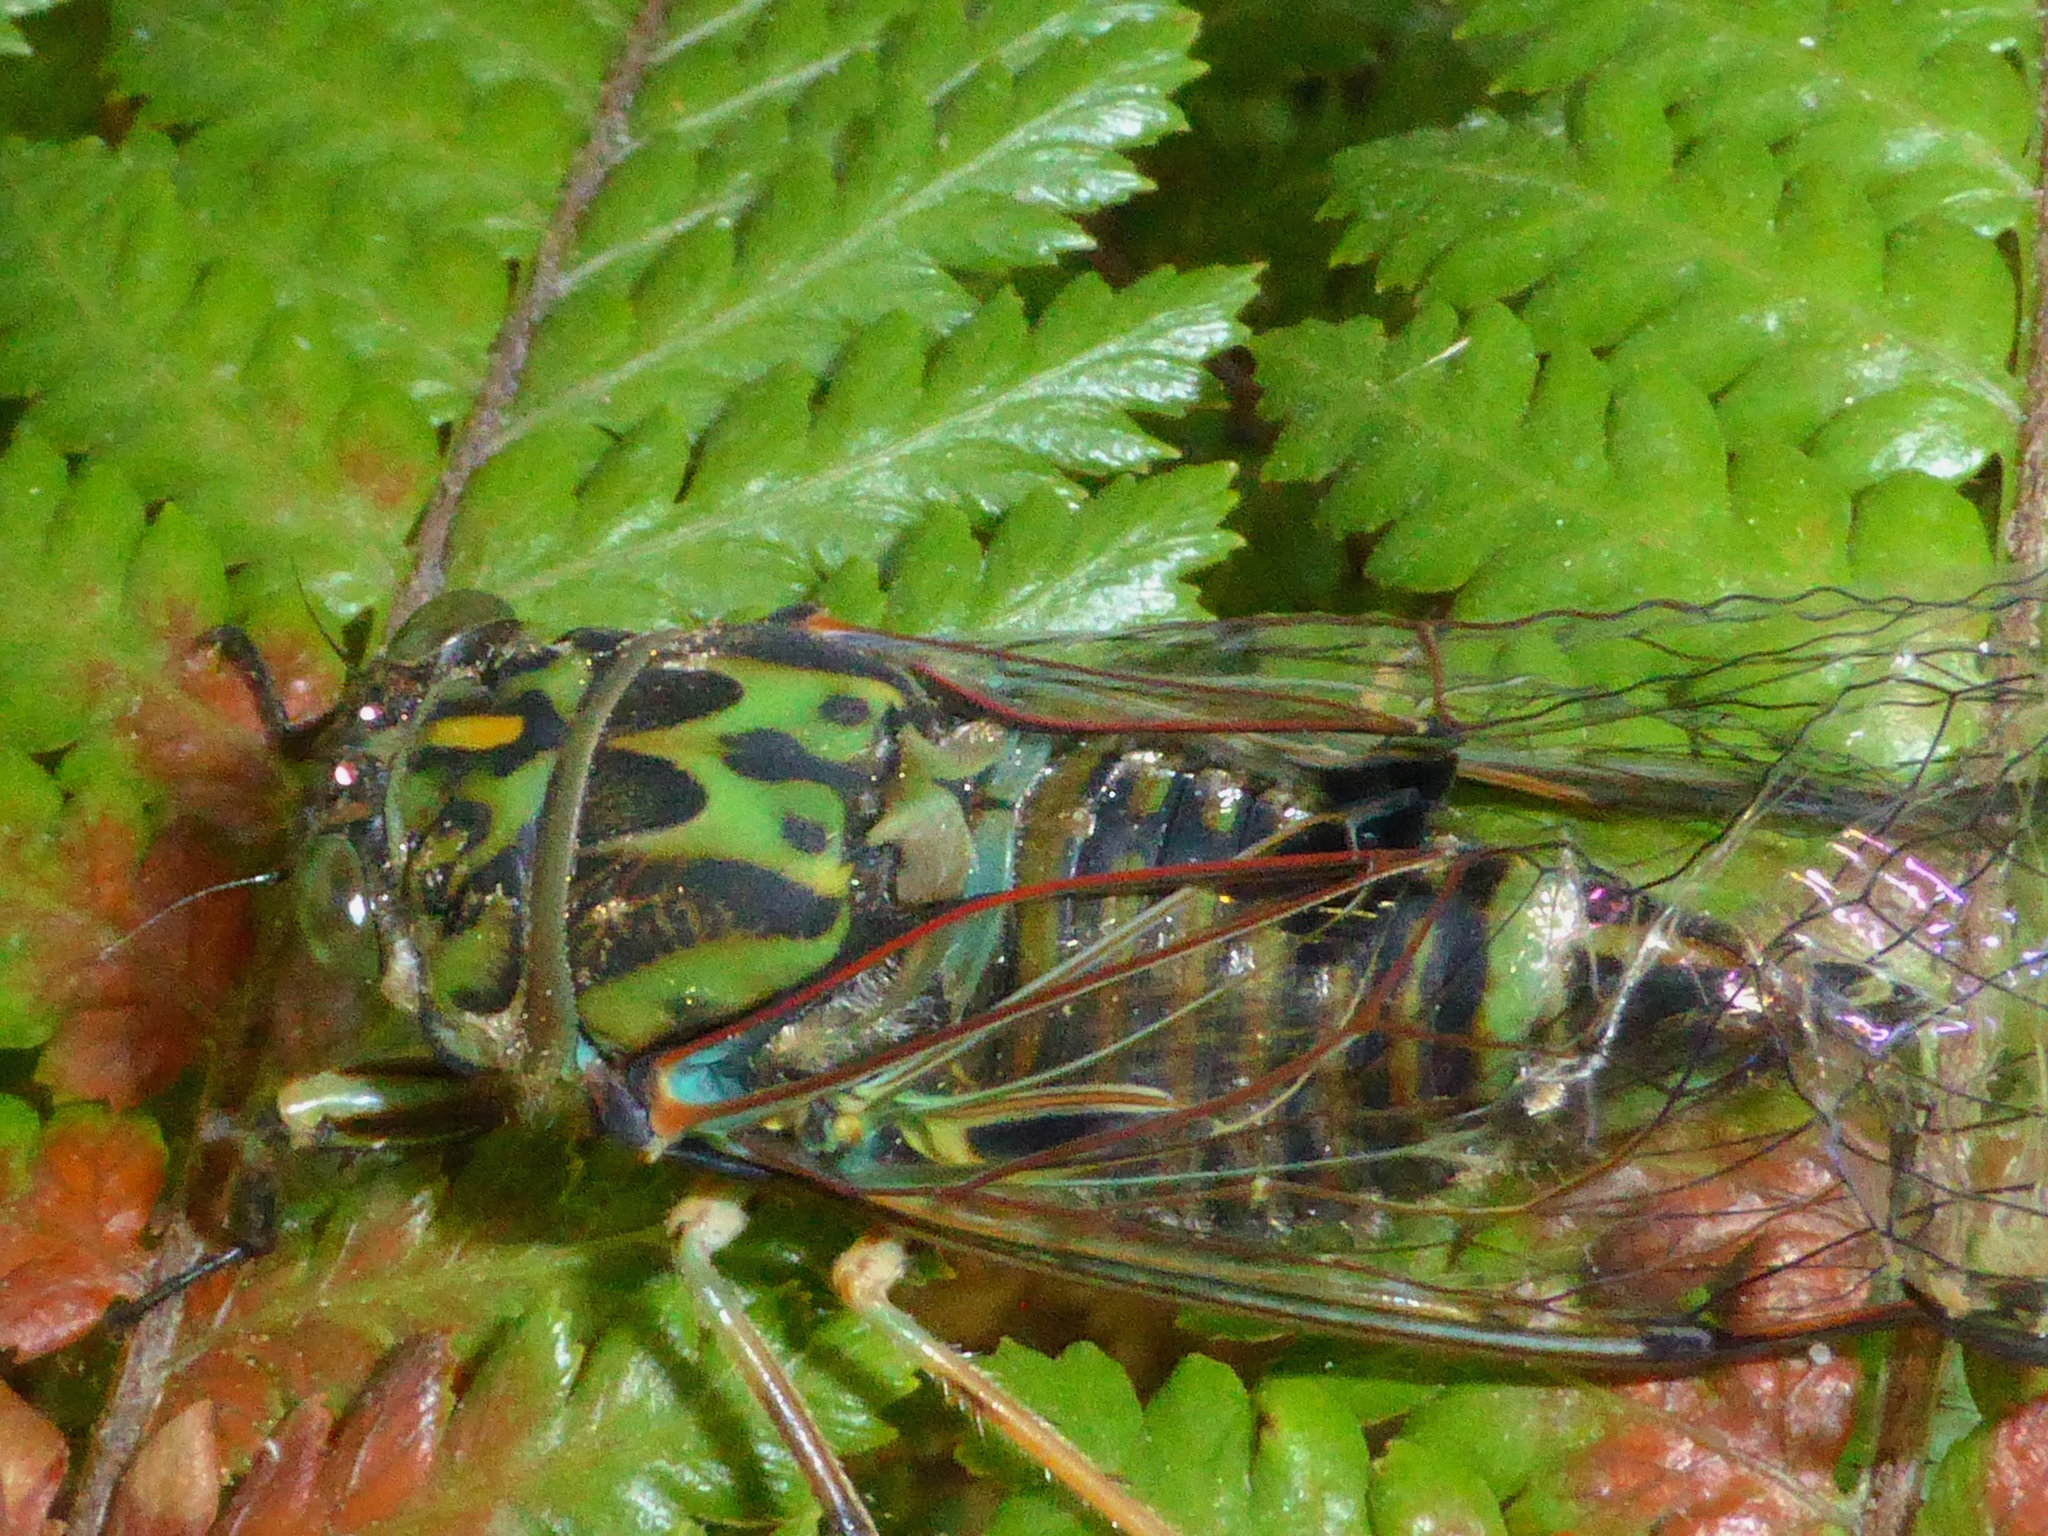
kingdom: Animalia
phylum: Arthropoda
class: Insecta
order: Hemiptera
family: Cicadidae
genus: Amphipsalta
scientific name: Amphipsalta zelandica
